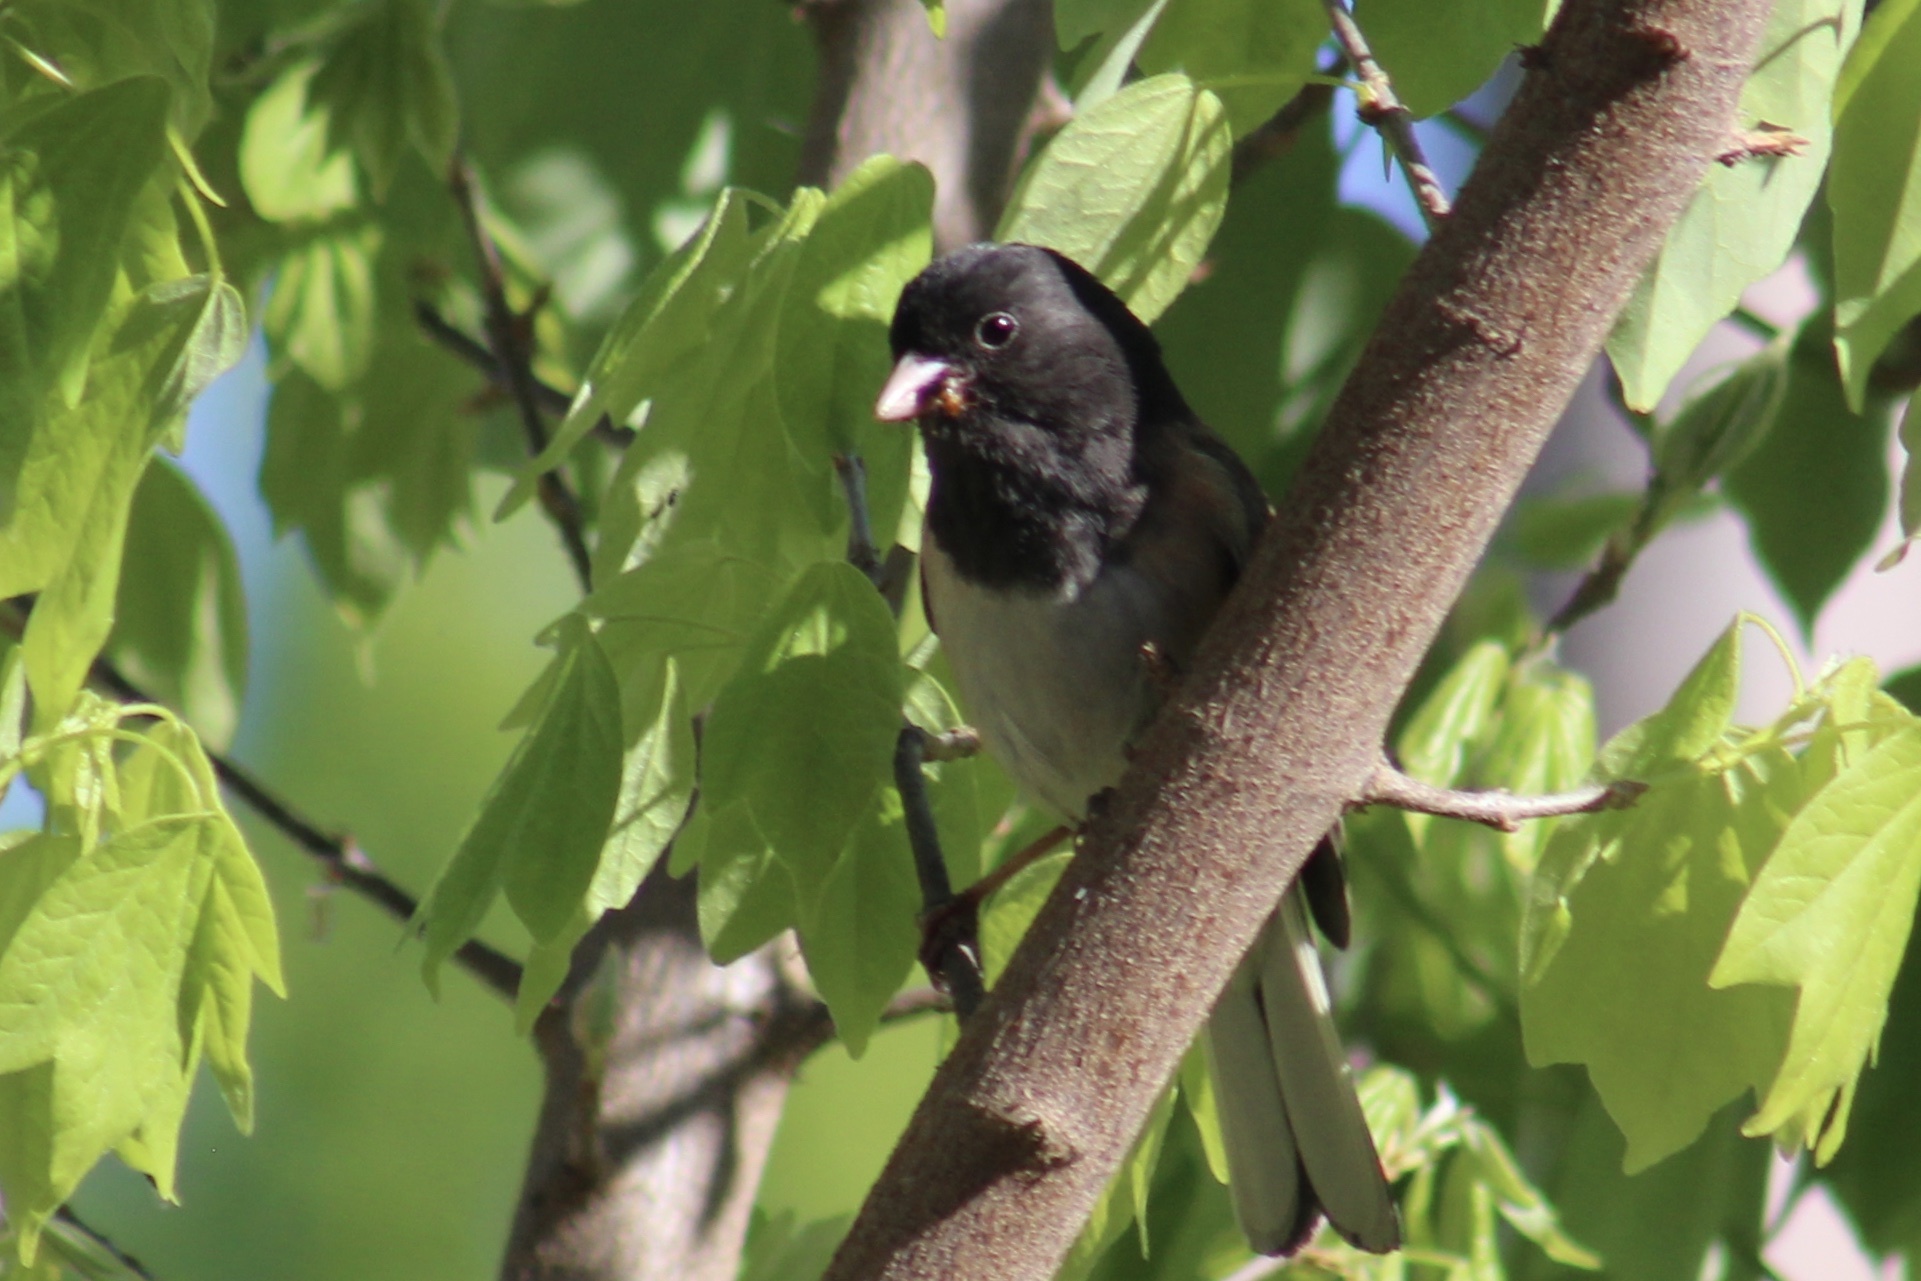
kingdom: Animalia
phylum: Chordata
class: Aves
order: Passeriformes
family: Passerellidae
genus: Junco
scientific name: Junco hyemalis
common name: Dark-eyed junco
